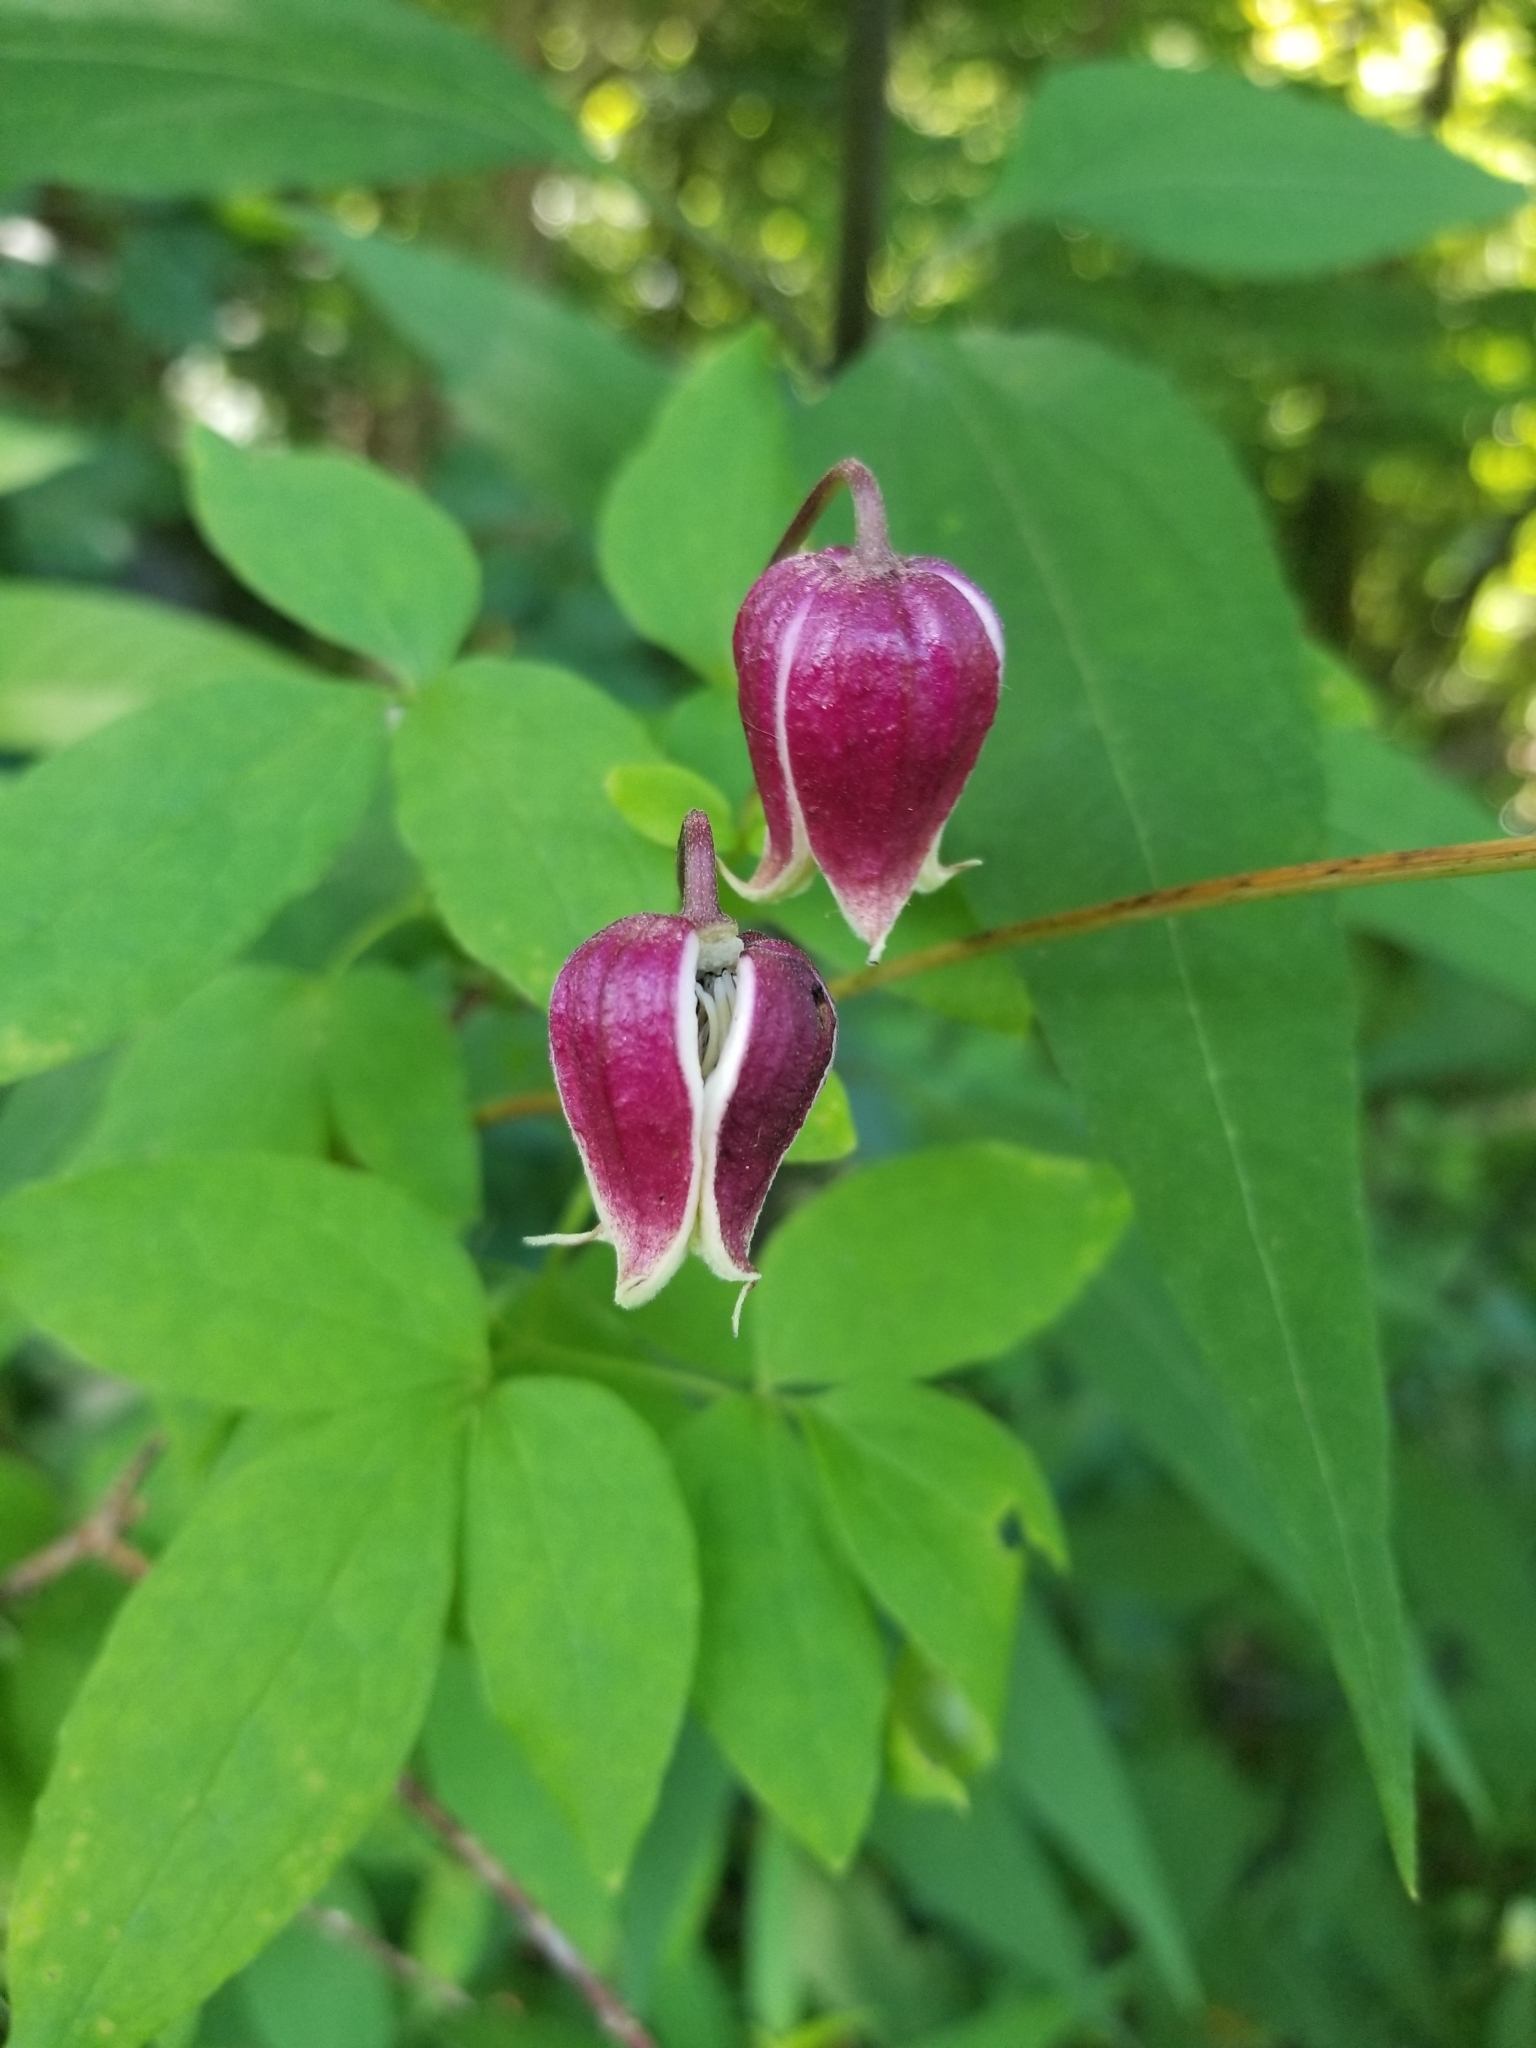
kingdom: Plantae
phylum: Tracheophyta
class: Magnoliopsida
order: Ranunculales
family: Ranunculaceae
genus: Clematis
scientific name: Clematis viorna
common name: Leather-flower
